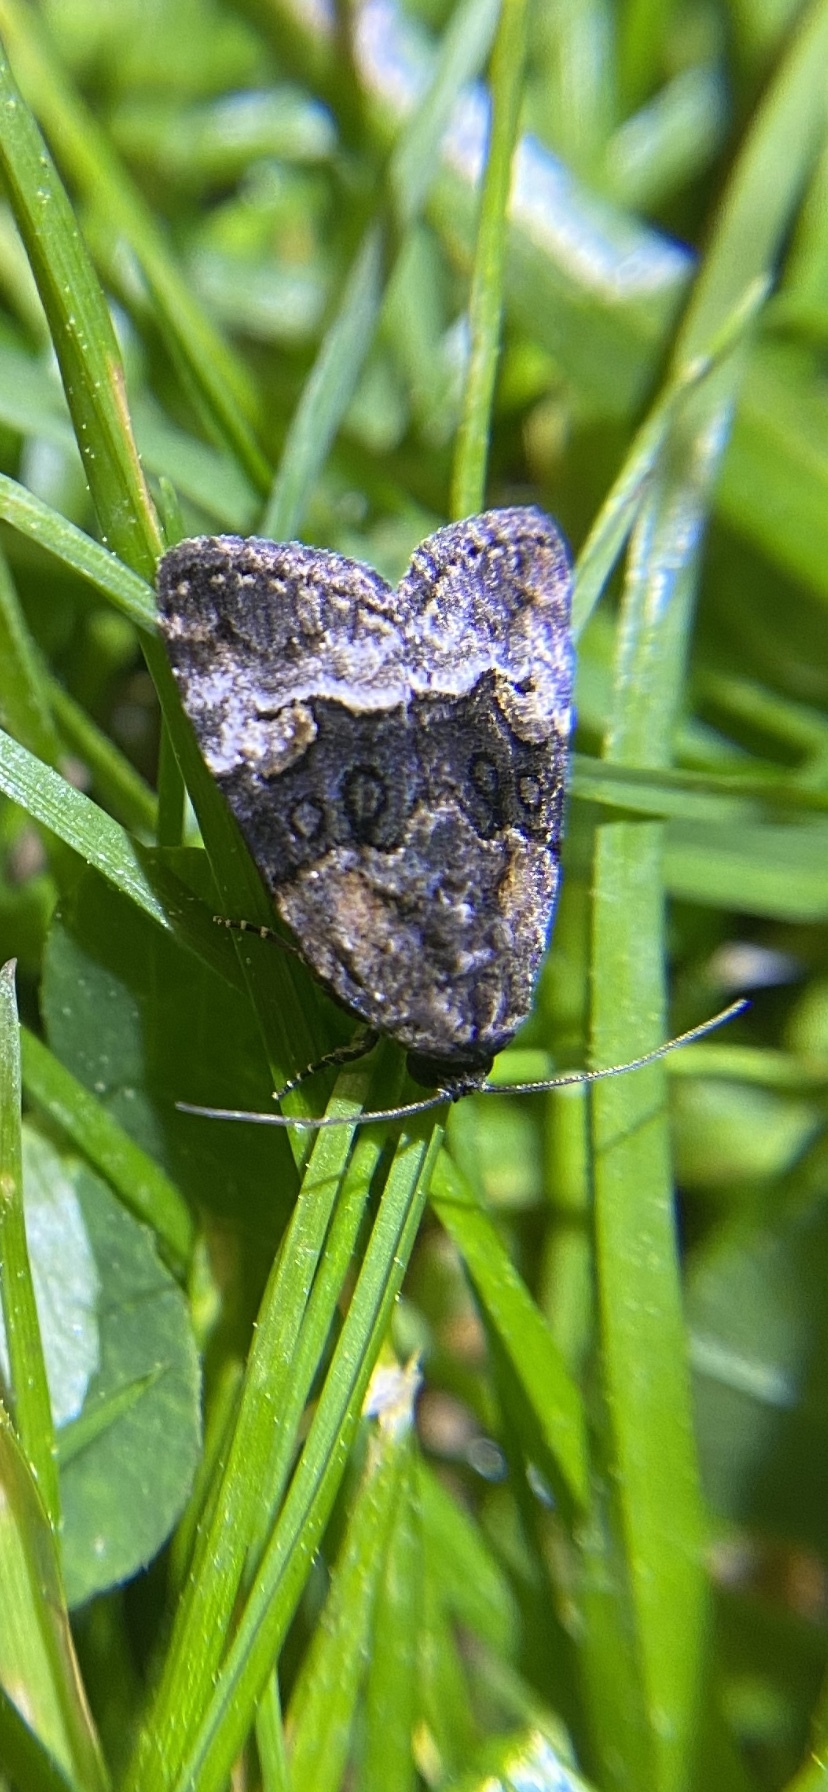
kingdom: Animalia
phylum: Arthropoda
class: Insecta
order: Lepidoptera
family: Noctuidae
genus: Elaphria
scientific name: Elaphria georgei
